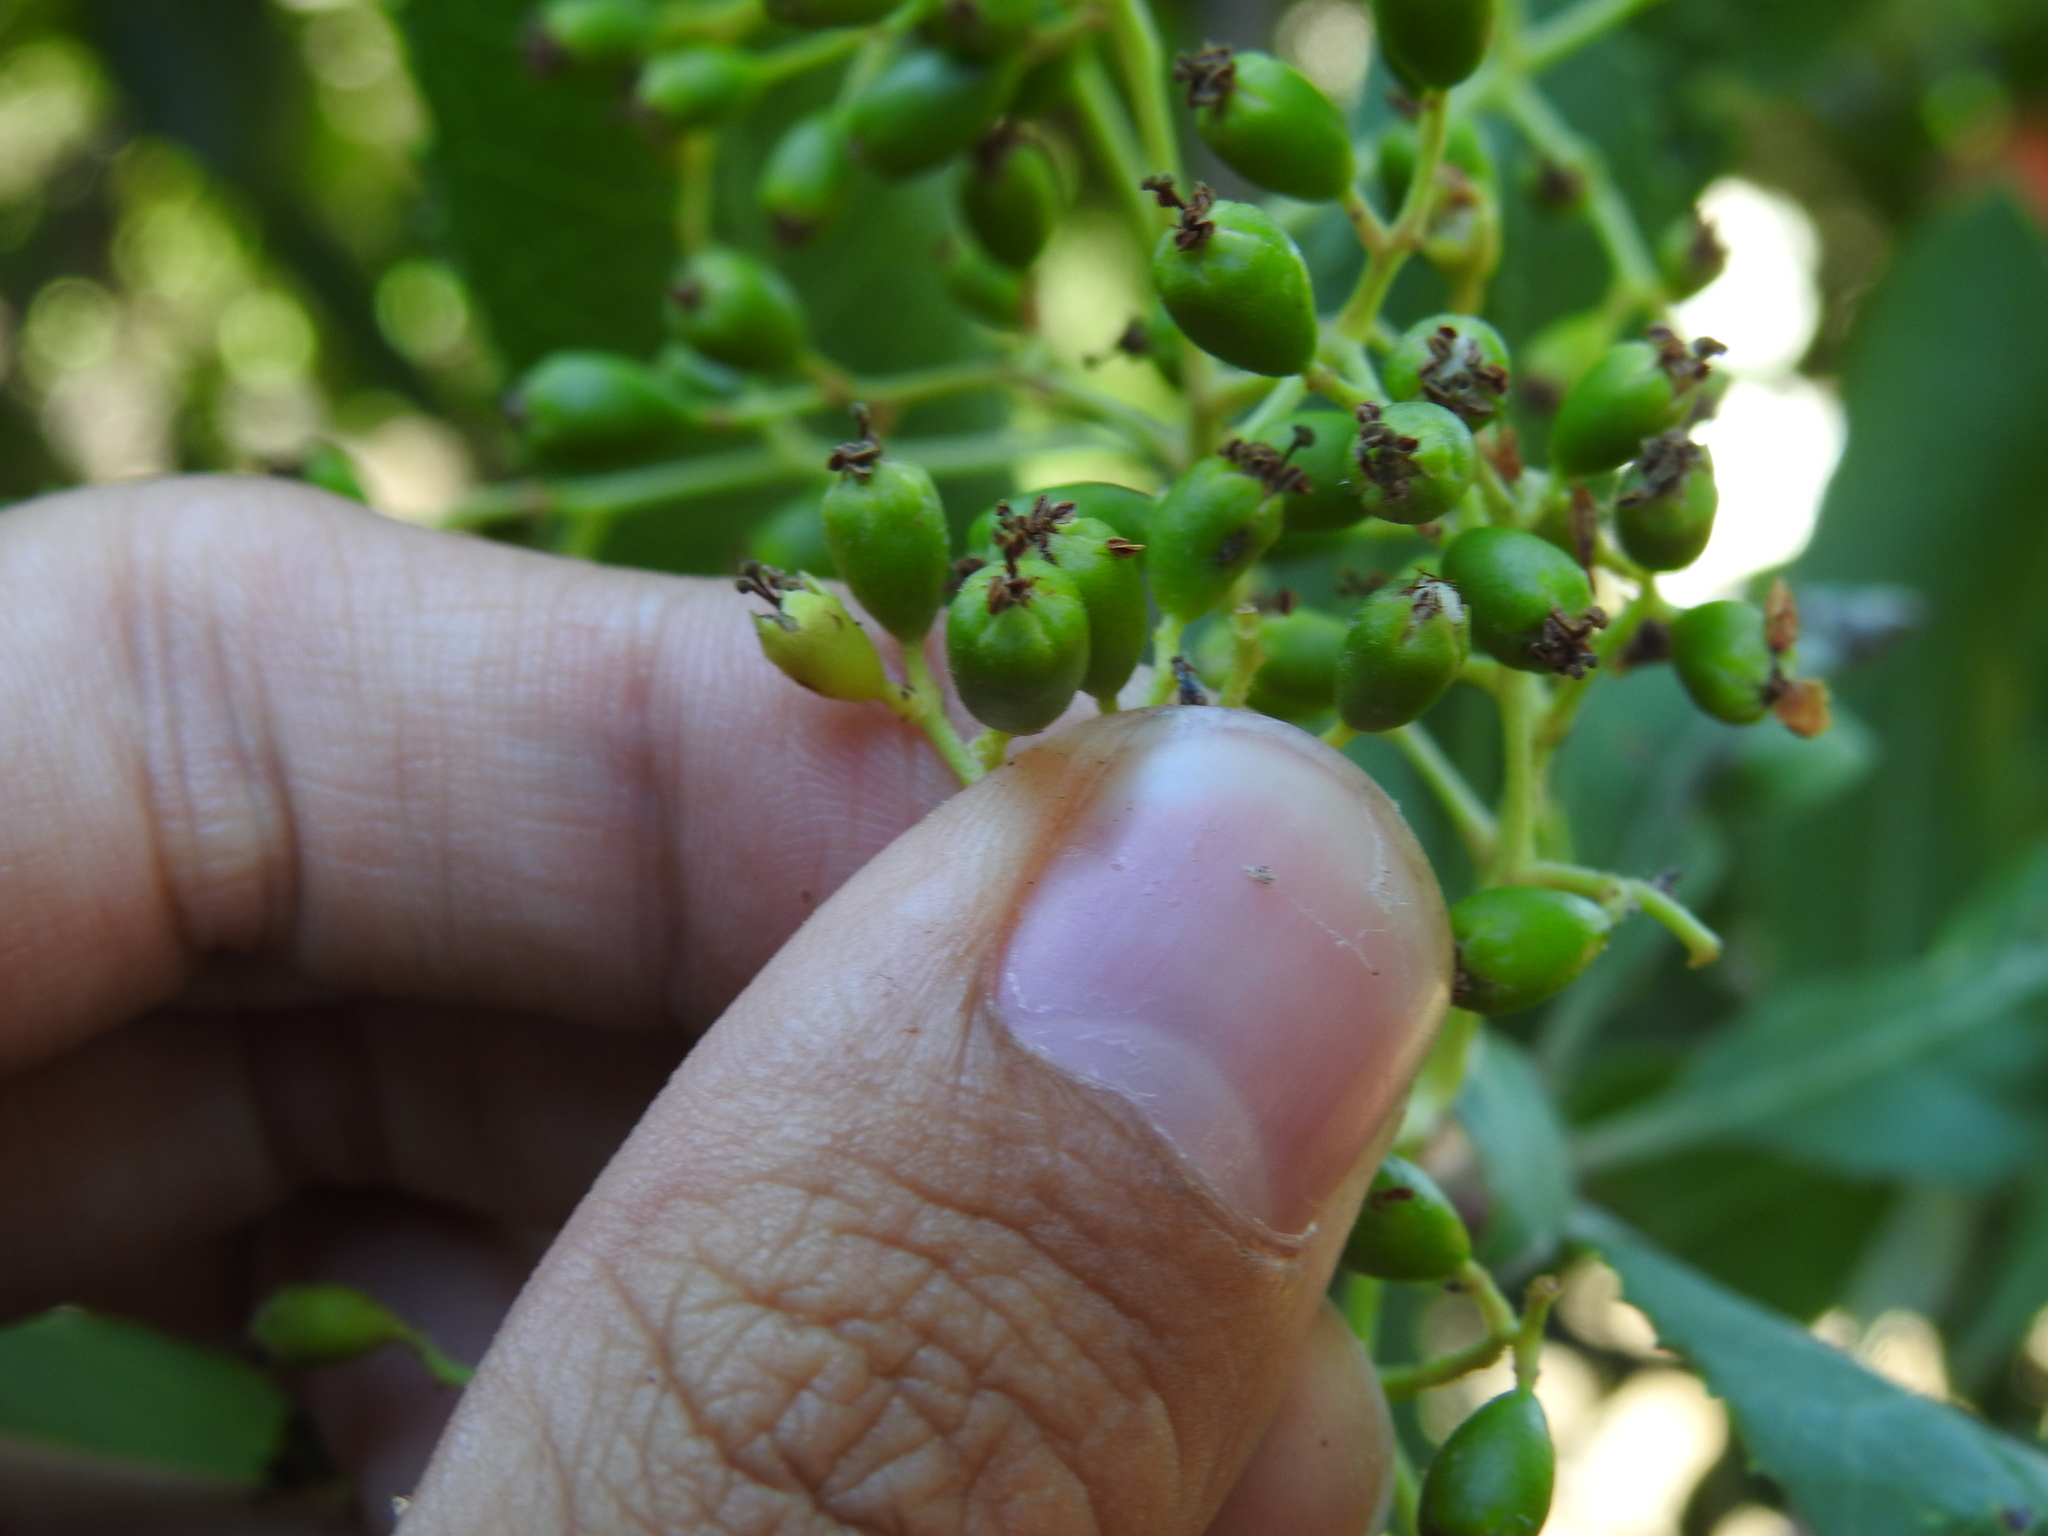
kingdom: Animalia
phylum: Arthropoda
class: Insecta
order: Diptera
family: Cecidomyiidae
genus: Asphondylia
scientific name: Asphondylia photiniae
